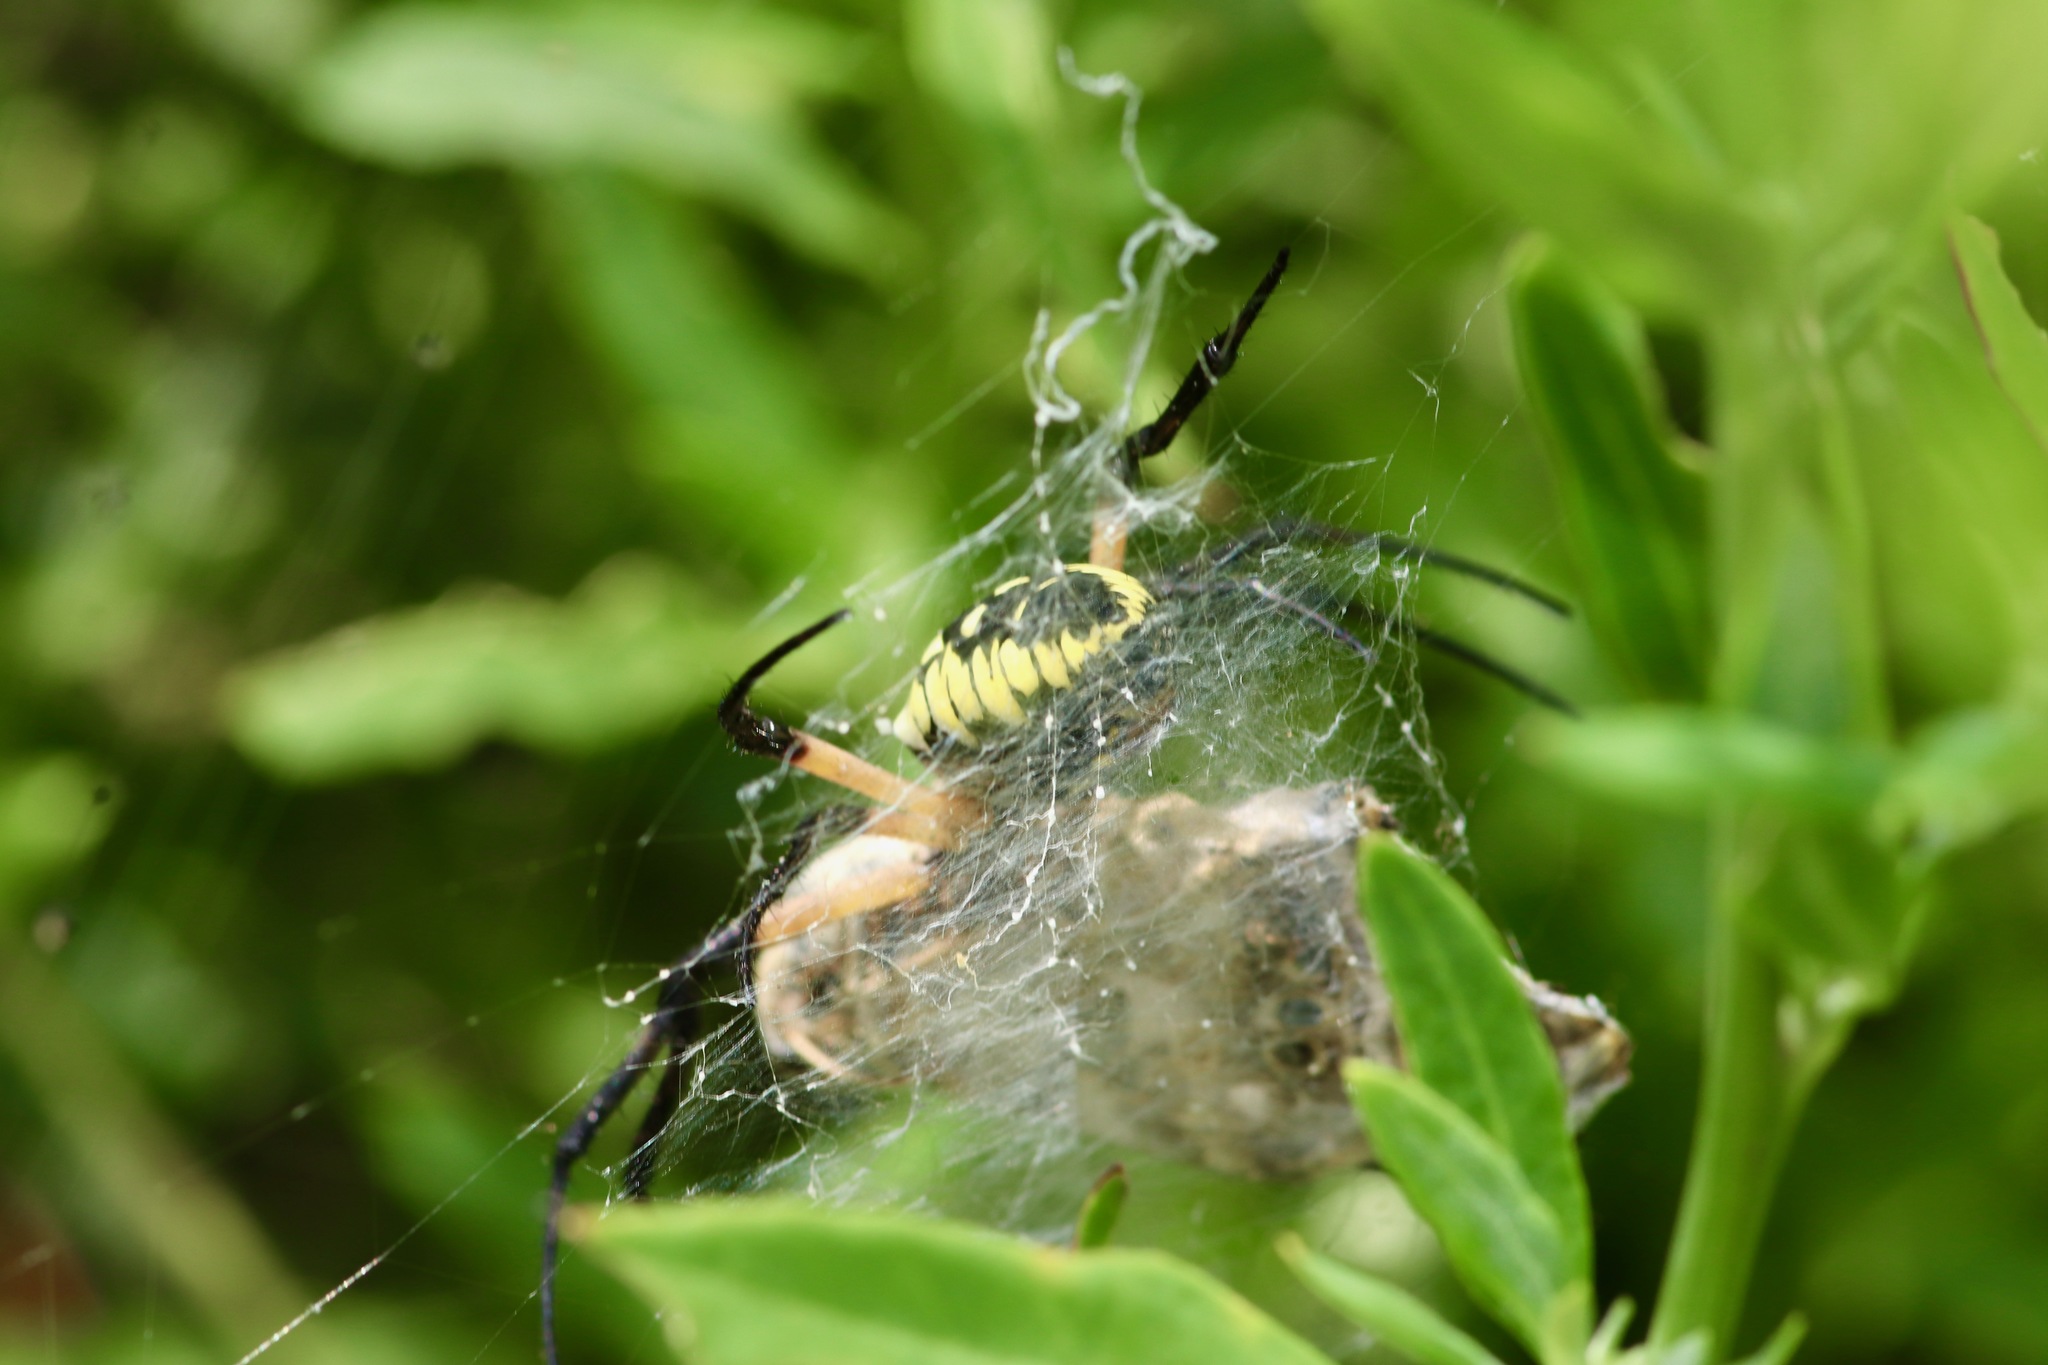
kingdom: Animalia
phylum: Arthropoda
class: Arachnida
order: Araneae
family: Araneidae
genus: Argiope
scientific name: Argiope aurantia
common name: Orb weavers
